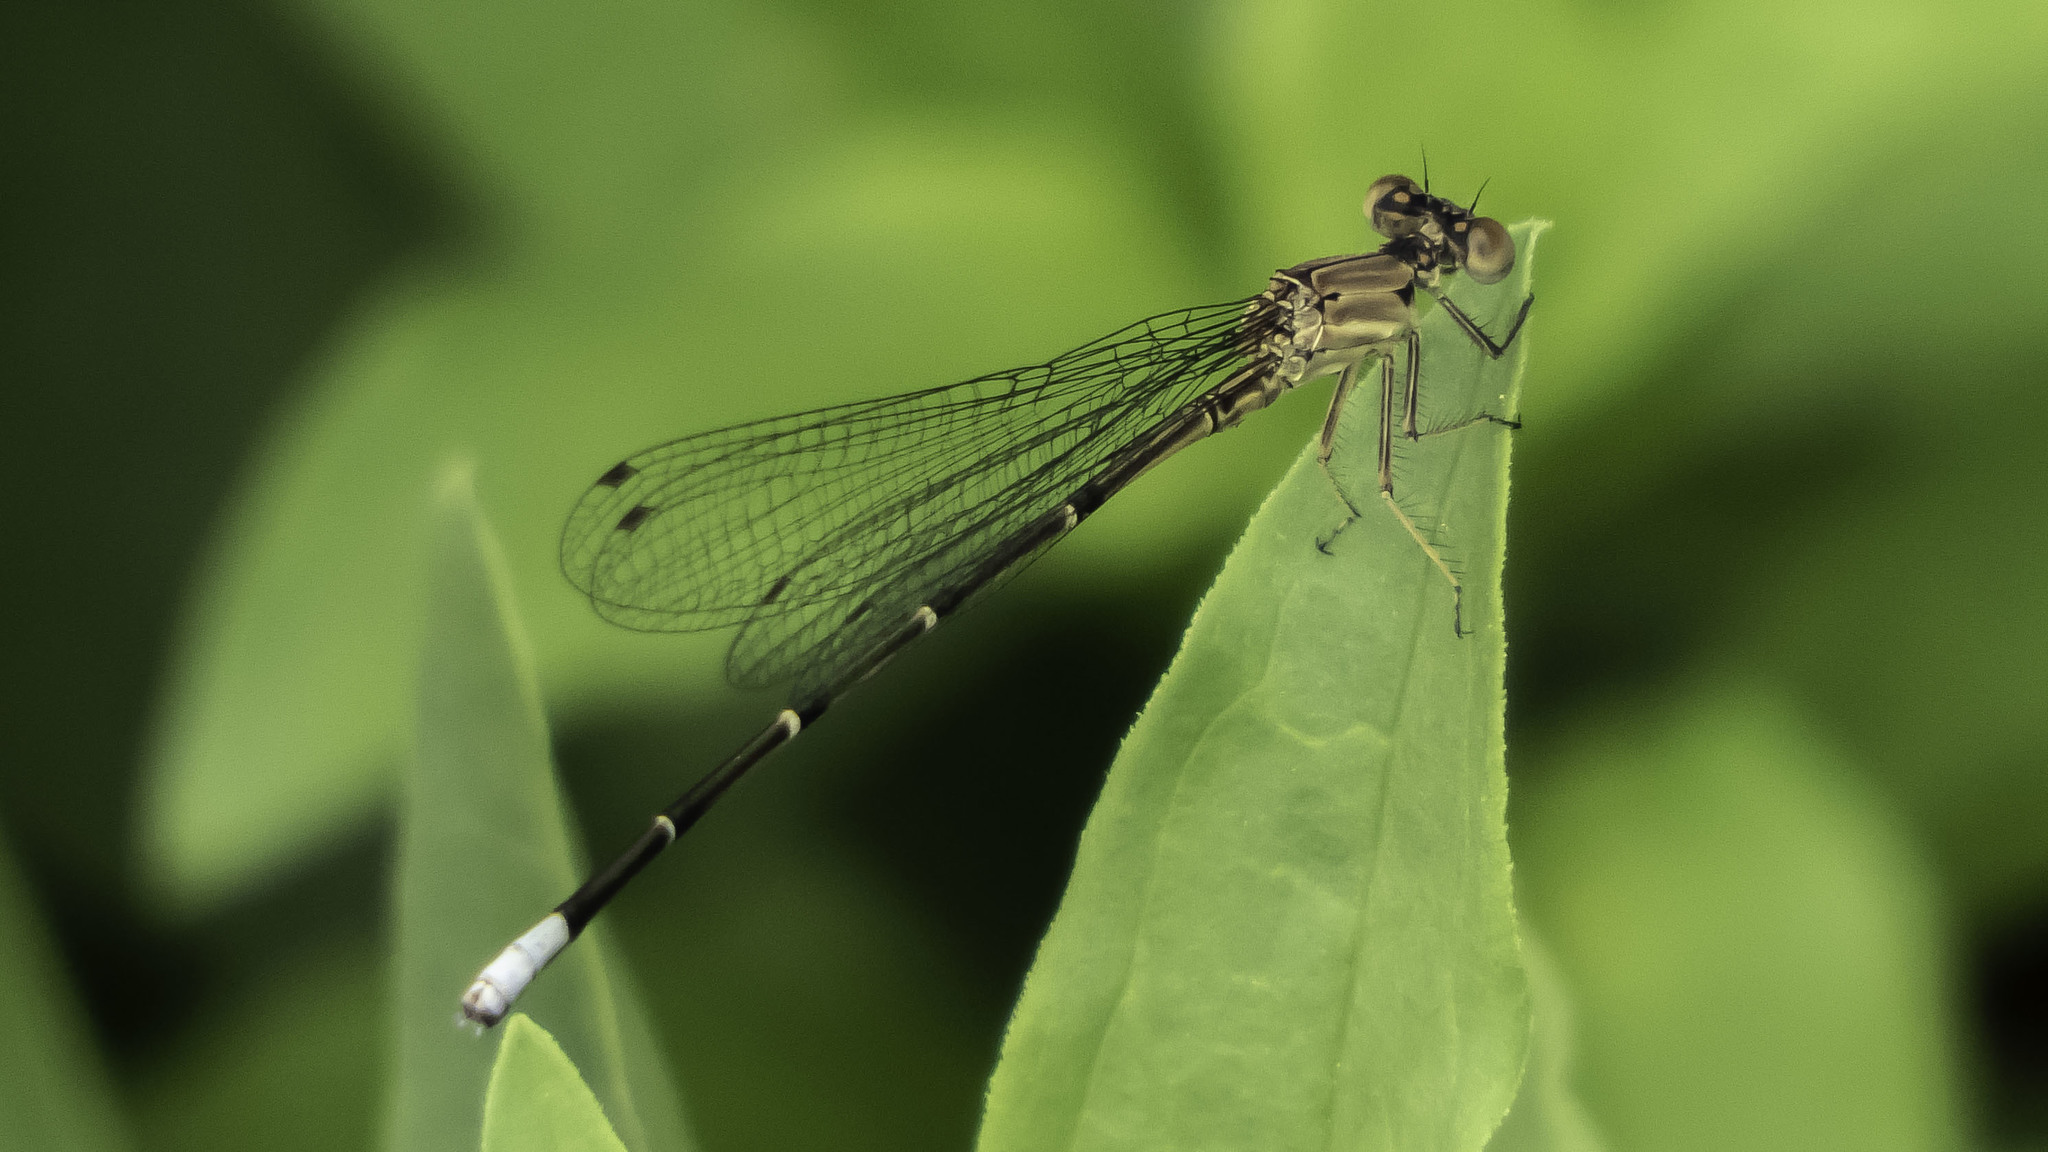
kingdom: Animalia
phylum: Arthropoda
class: Insecta
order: Odonata
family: Coenagrionidae
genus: Argia
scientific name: Argia apicalis
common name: Blue-fronted dancer
